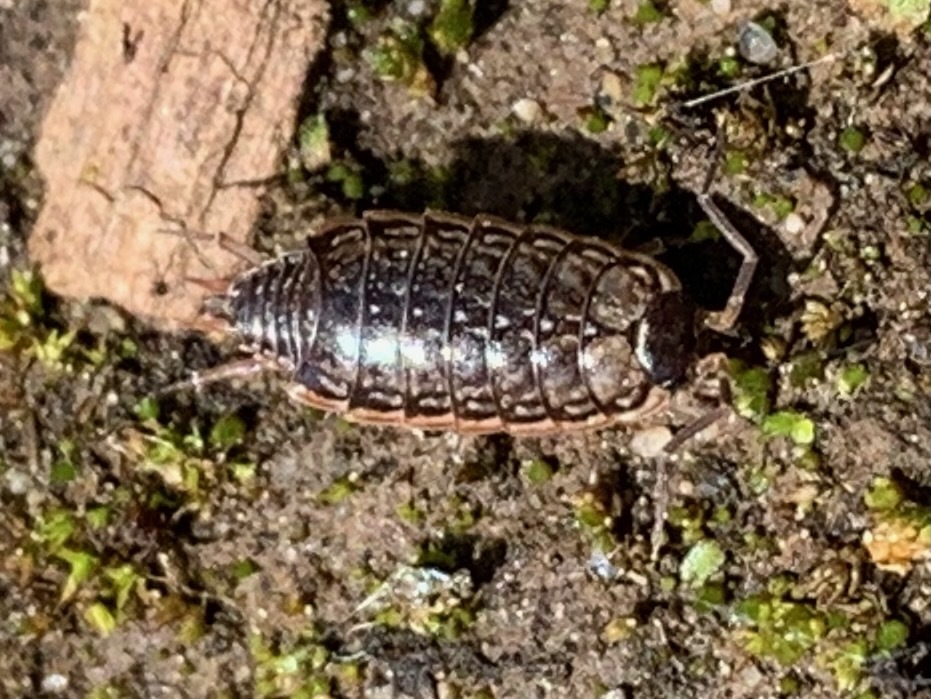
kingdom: Animalia
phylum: Arthropoda
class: Malacostraca
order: Isopoda
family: Philosciidae
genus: Philoscia
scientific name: Philoscia muscorum
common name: Common striped woodlouse
